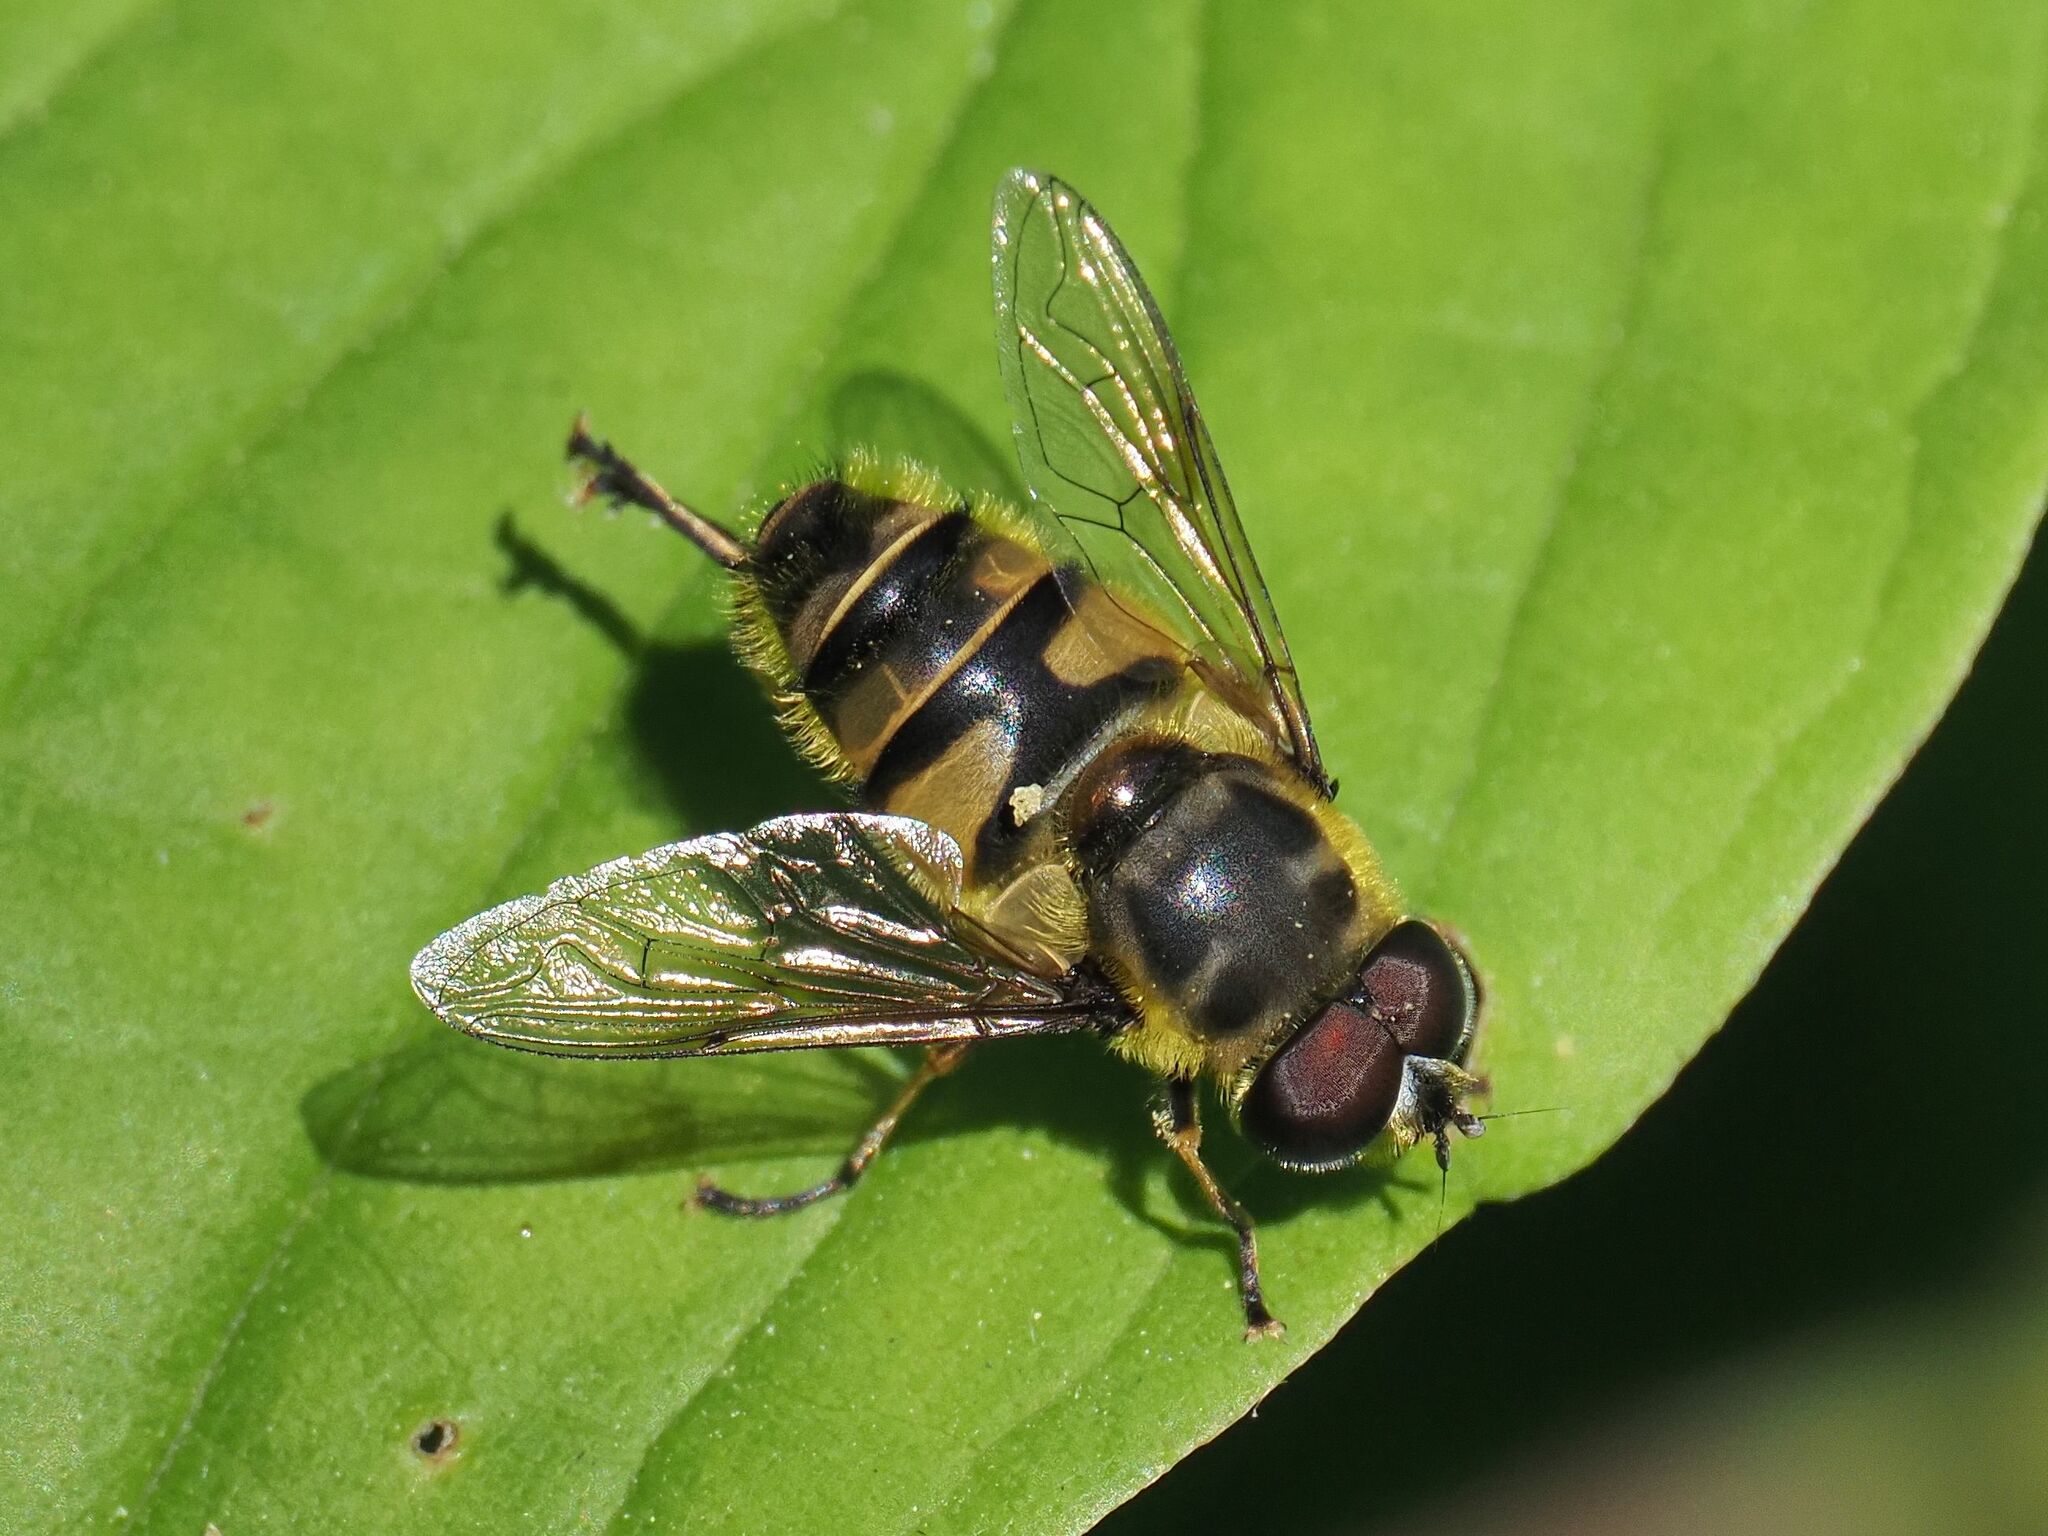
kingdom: Animalia
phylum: Arthropoda
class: Insecta
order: Diptera
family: Syrphidae
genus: Myathropa
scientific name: Myathropa florea
